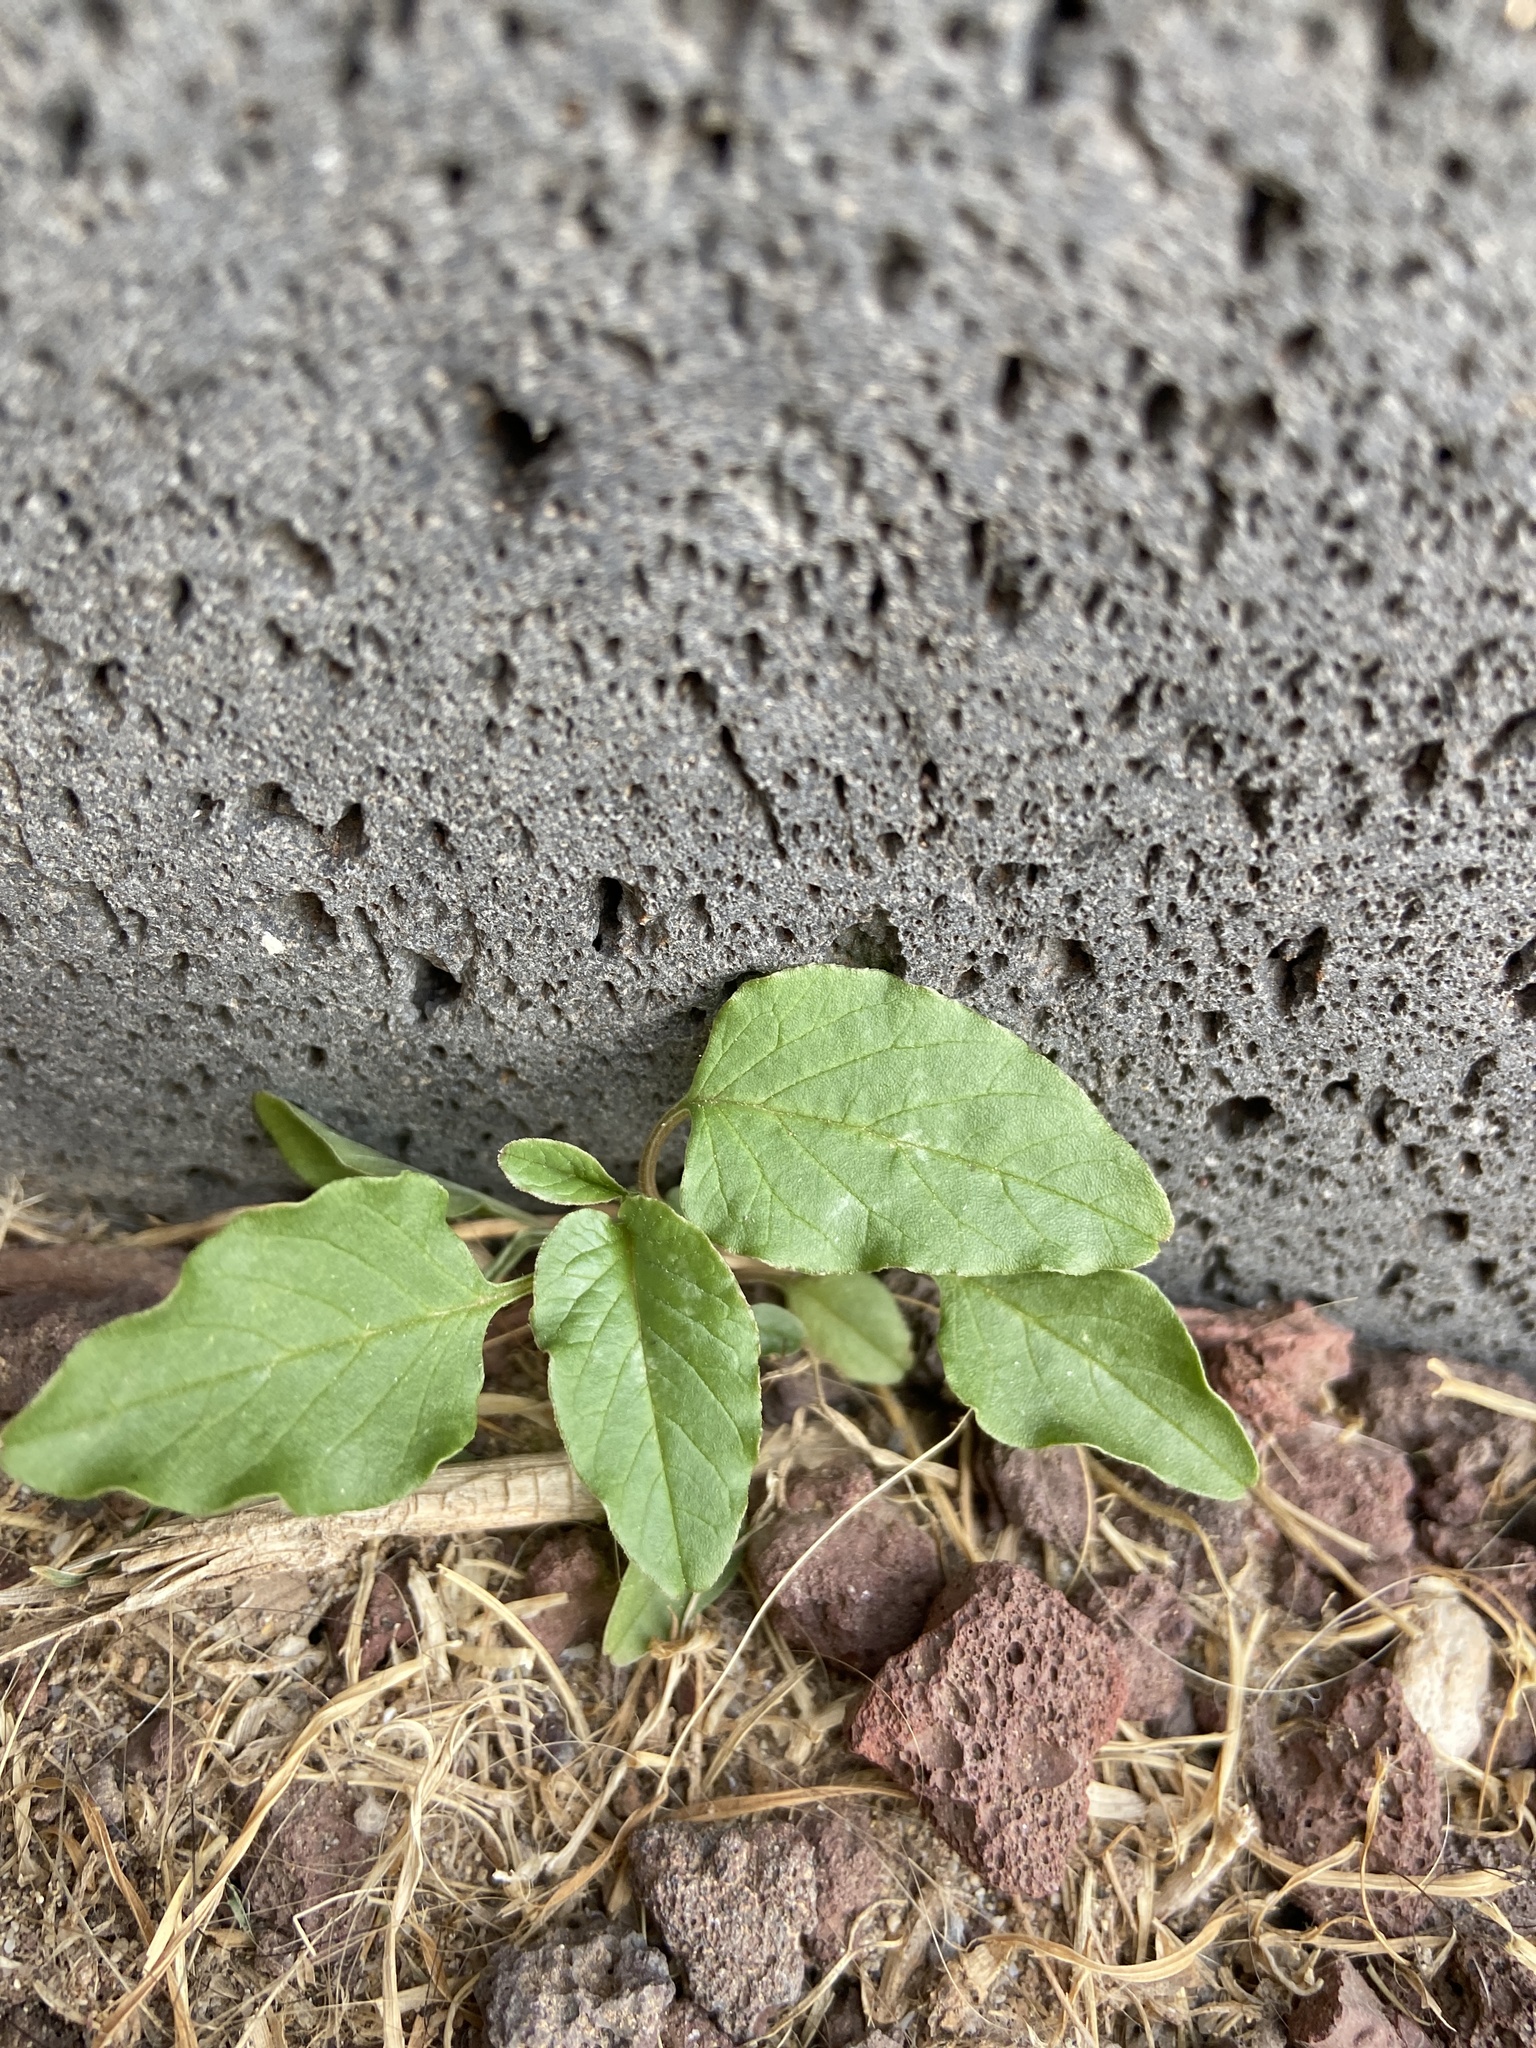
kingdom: Plantae
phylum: Tracheophyta
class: Magnoliopsida
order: Caryophyllales
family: Amaranthaceae
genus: Amaranthus
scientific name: Amaranthus blitum
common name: Purple amaranth
